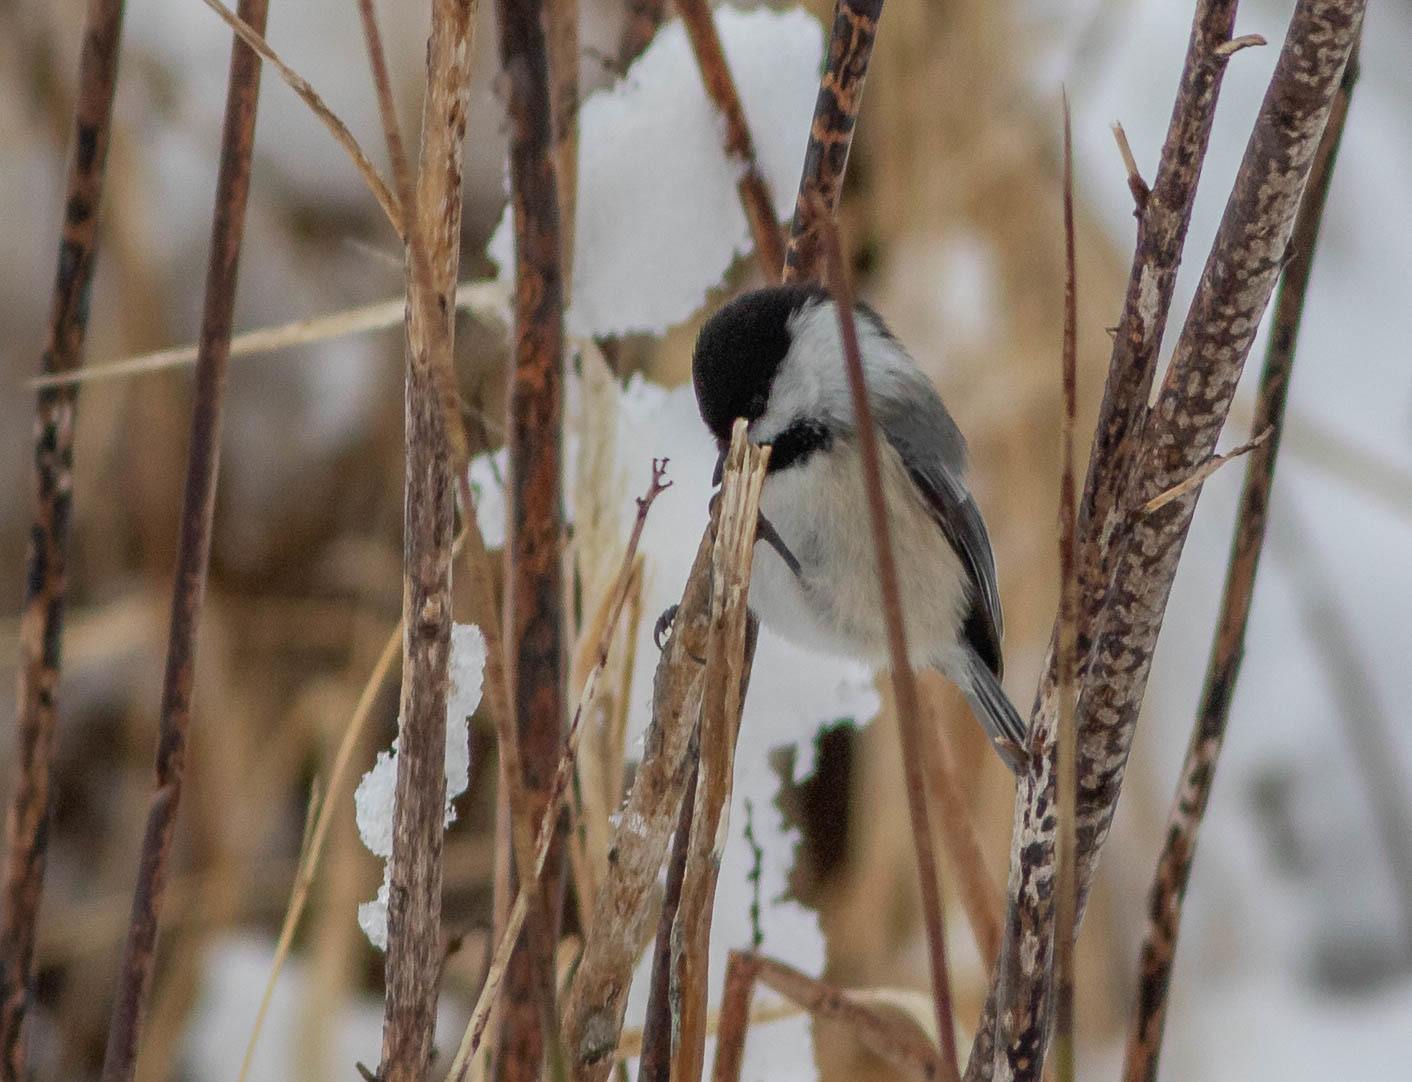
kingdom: Animalia
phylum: Chordata
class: Aves
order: Passeriformes
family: Paridae
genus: Poecile
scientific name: Poecile atricapillus
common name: Black-capped chickadee
